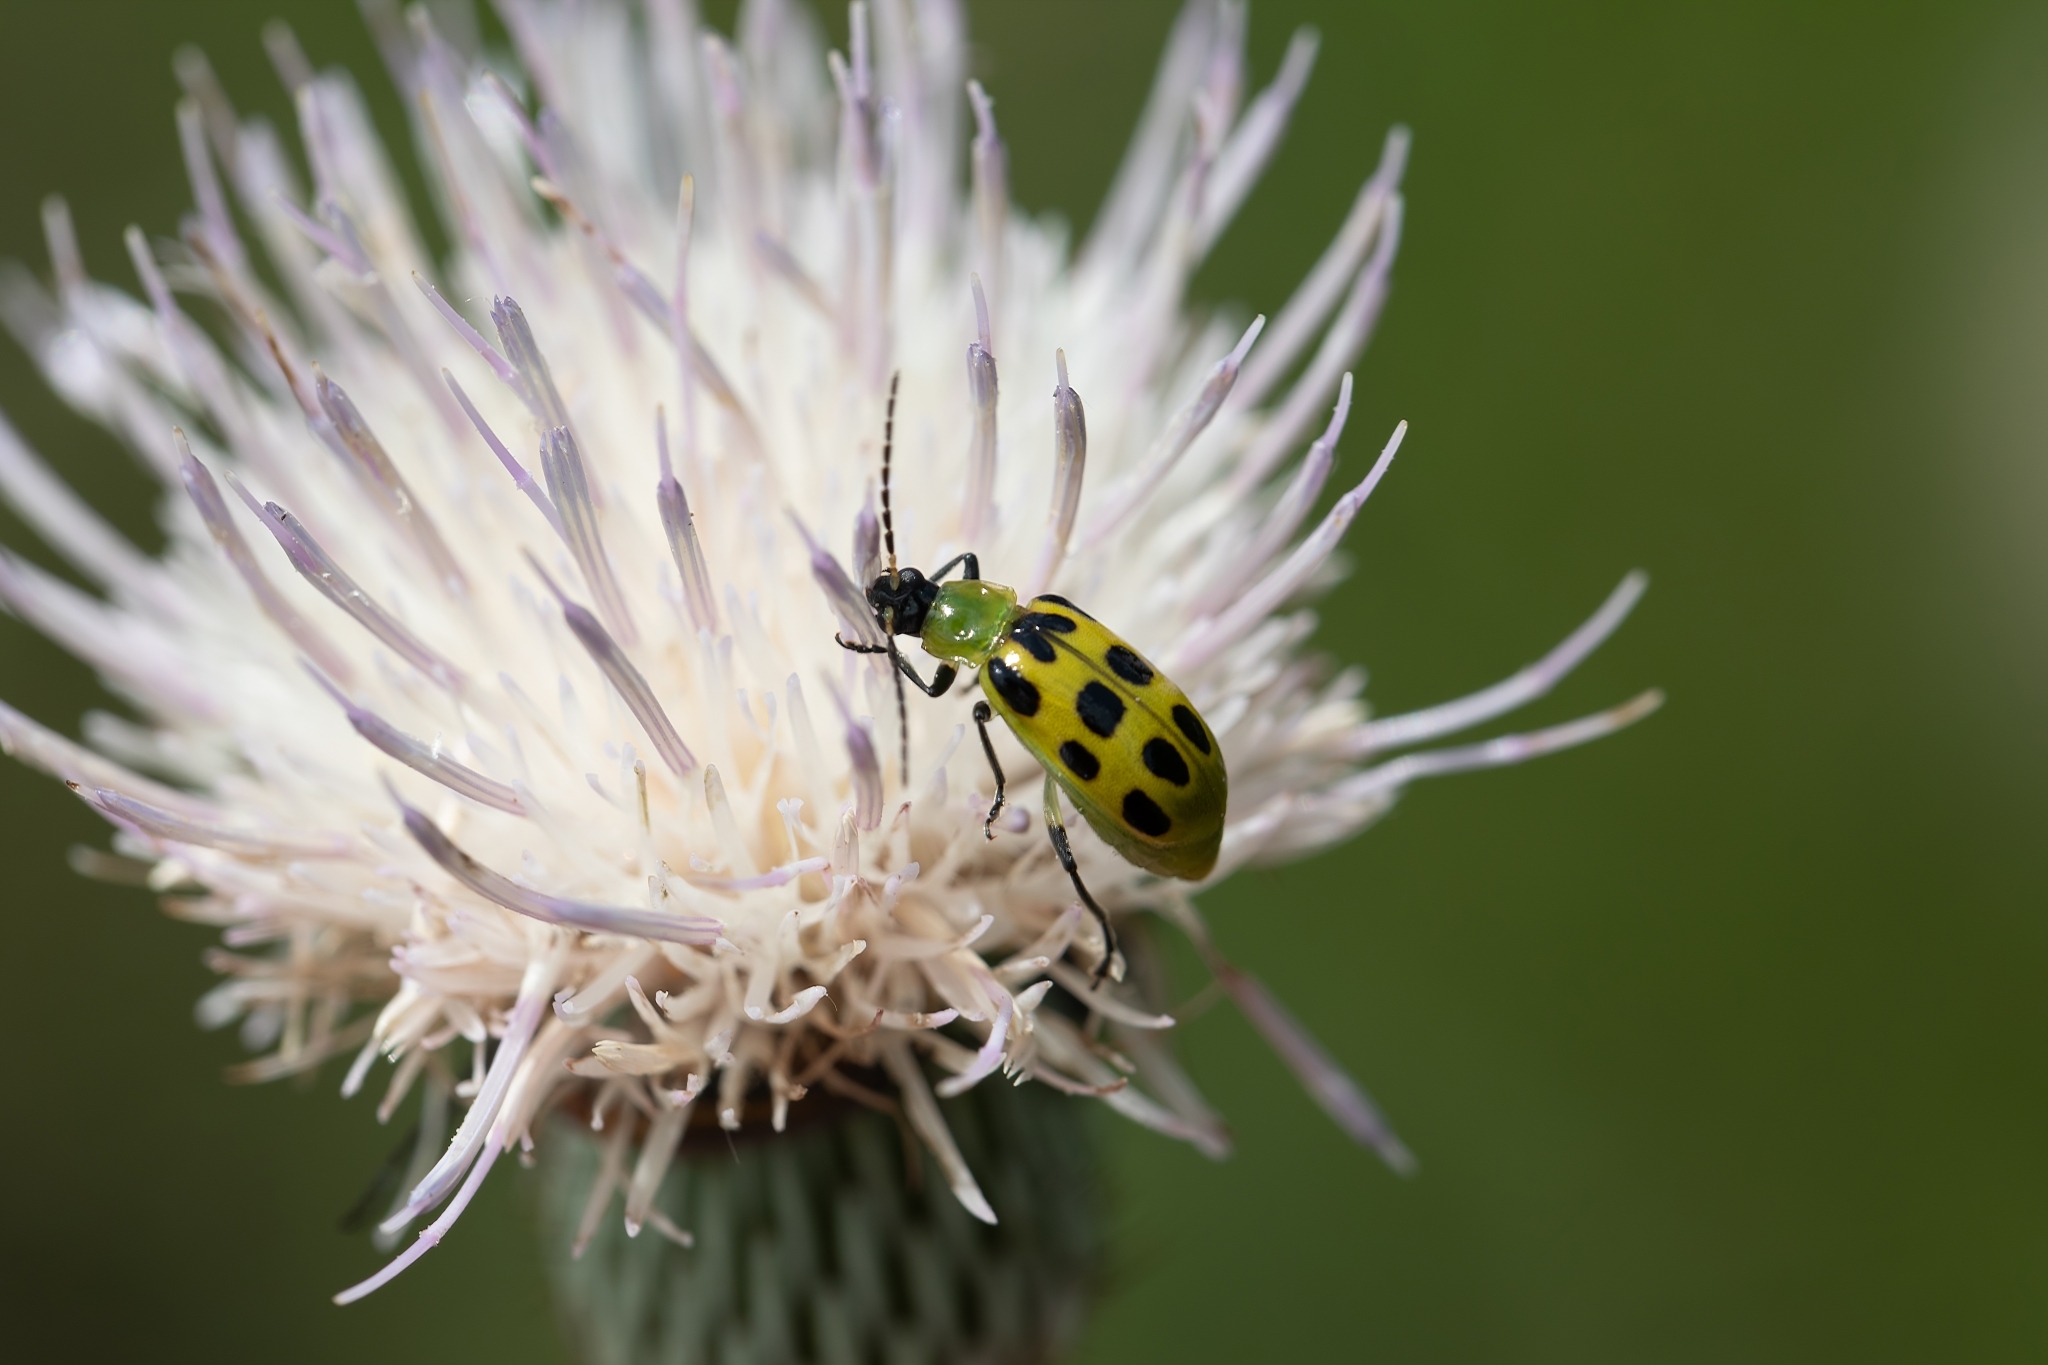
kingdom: Animalia
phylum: Arthropoda
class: Insecta
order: Coleoptera
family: Chrysomelidae
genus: Diabrotica
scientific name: Diabrotica undecimpunctata
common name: Spotted cucumber beetle
